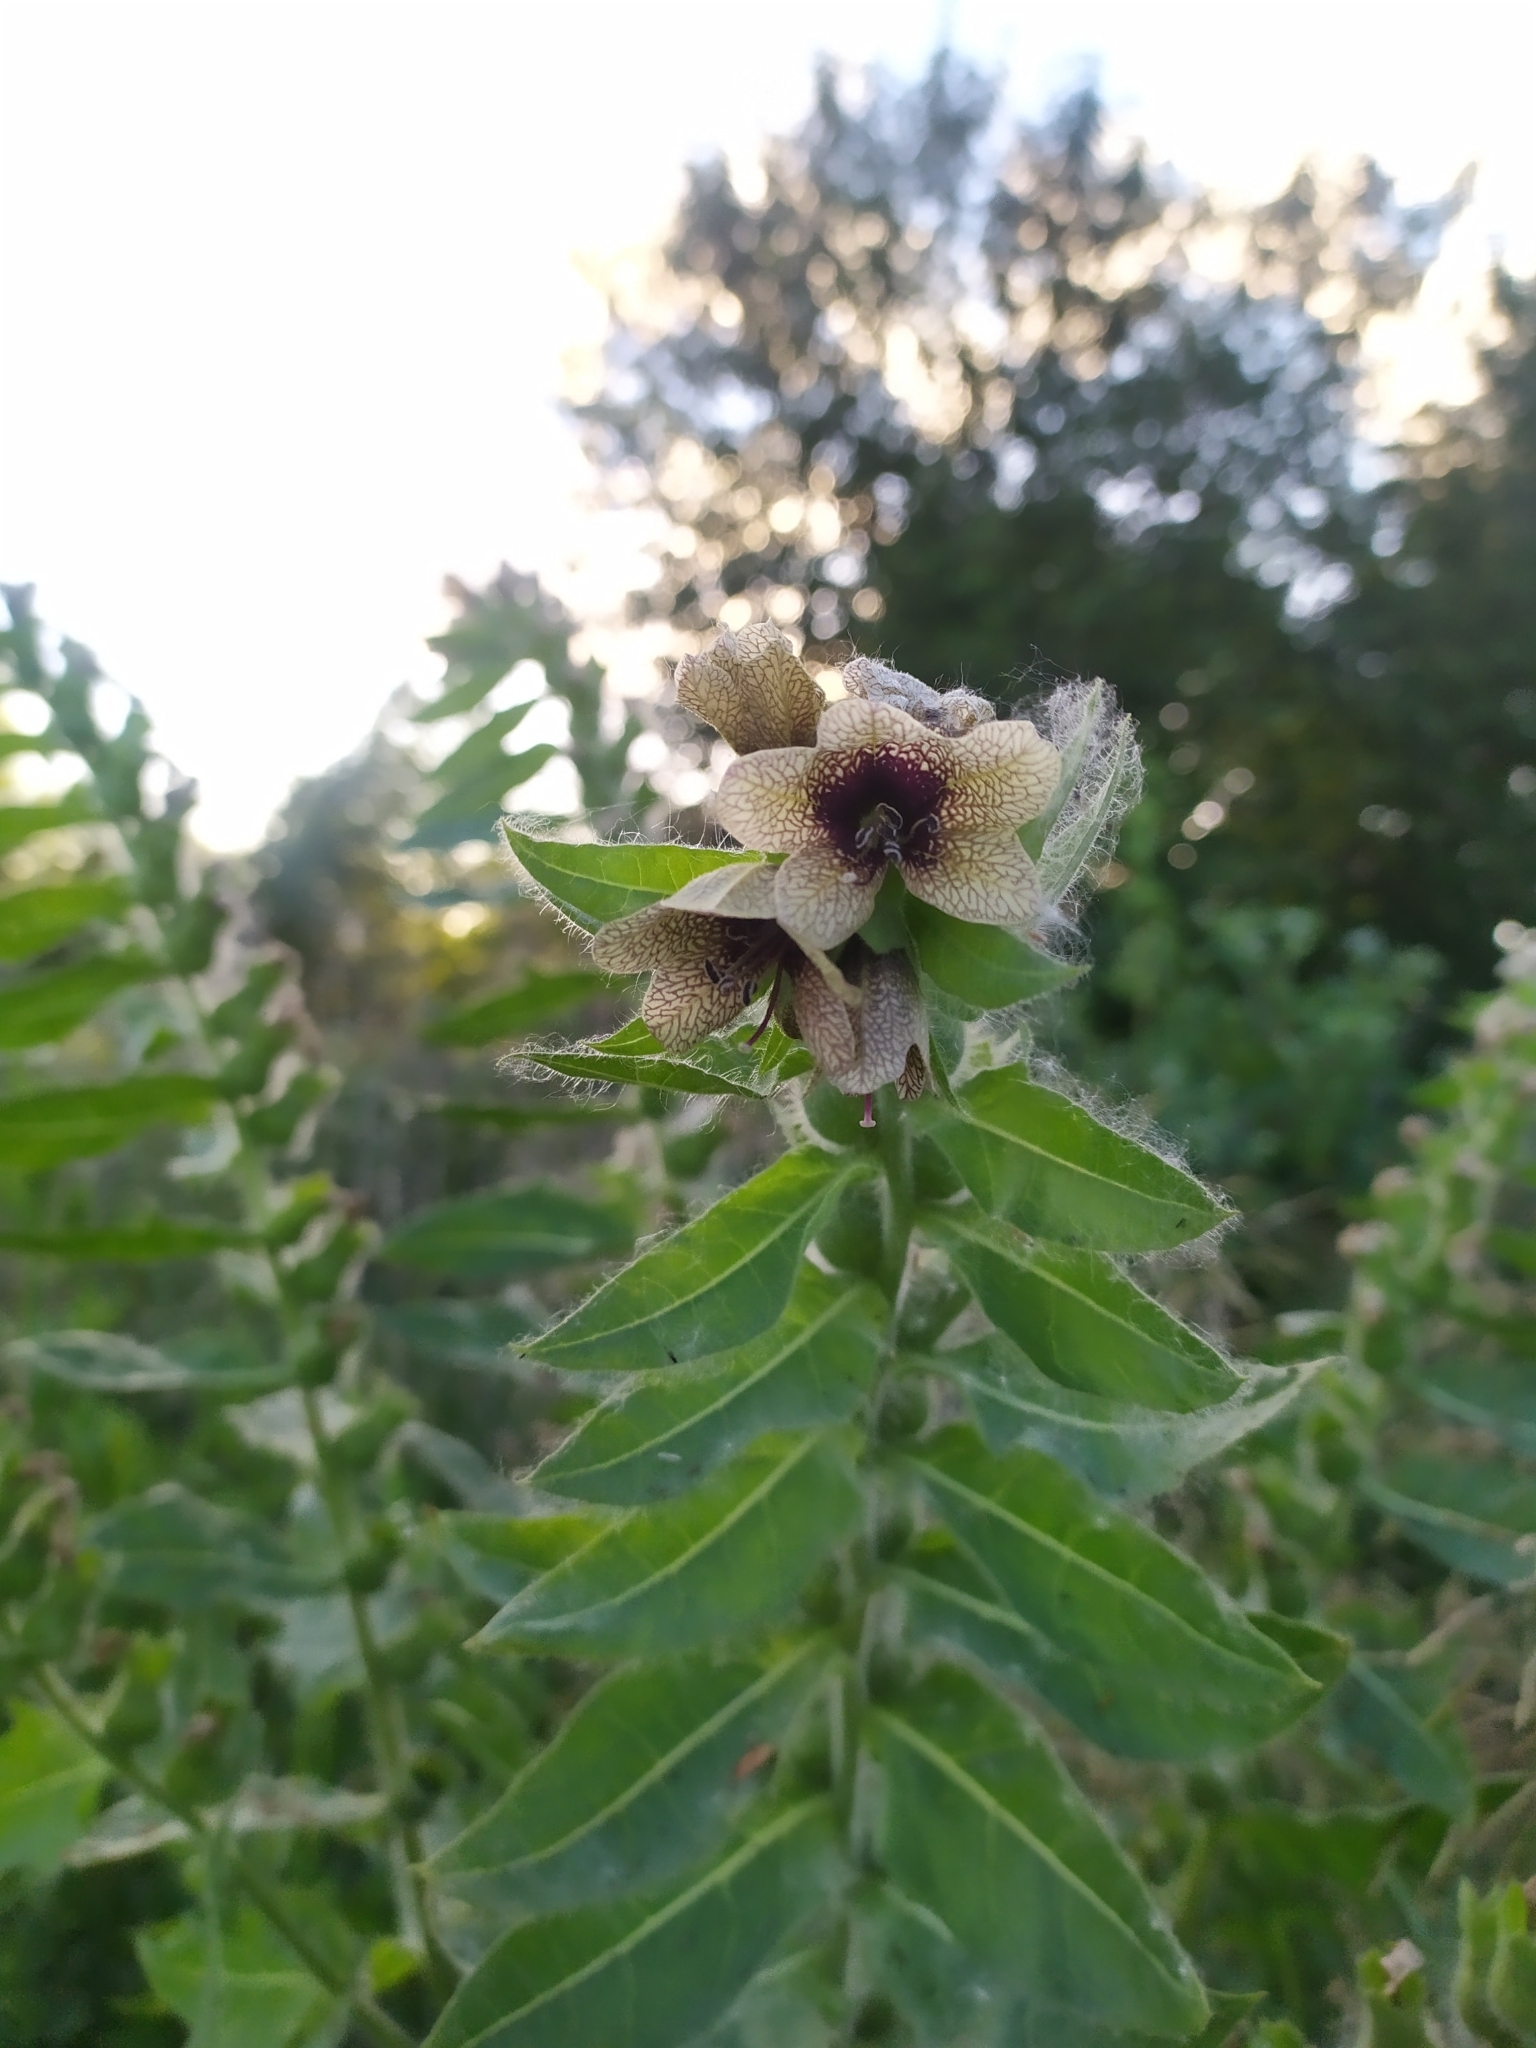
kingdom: Plantae
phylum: Tracheophyta
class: Magnoliopsida
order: Solanales
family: Solanaceae
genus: Hyoscyamus
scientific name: Hyoscyamus niger
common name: Henbane
